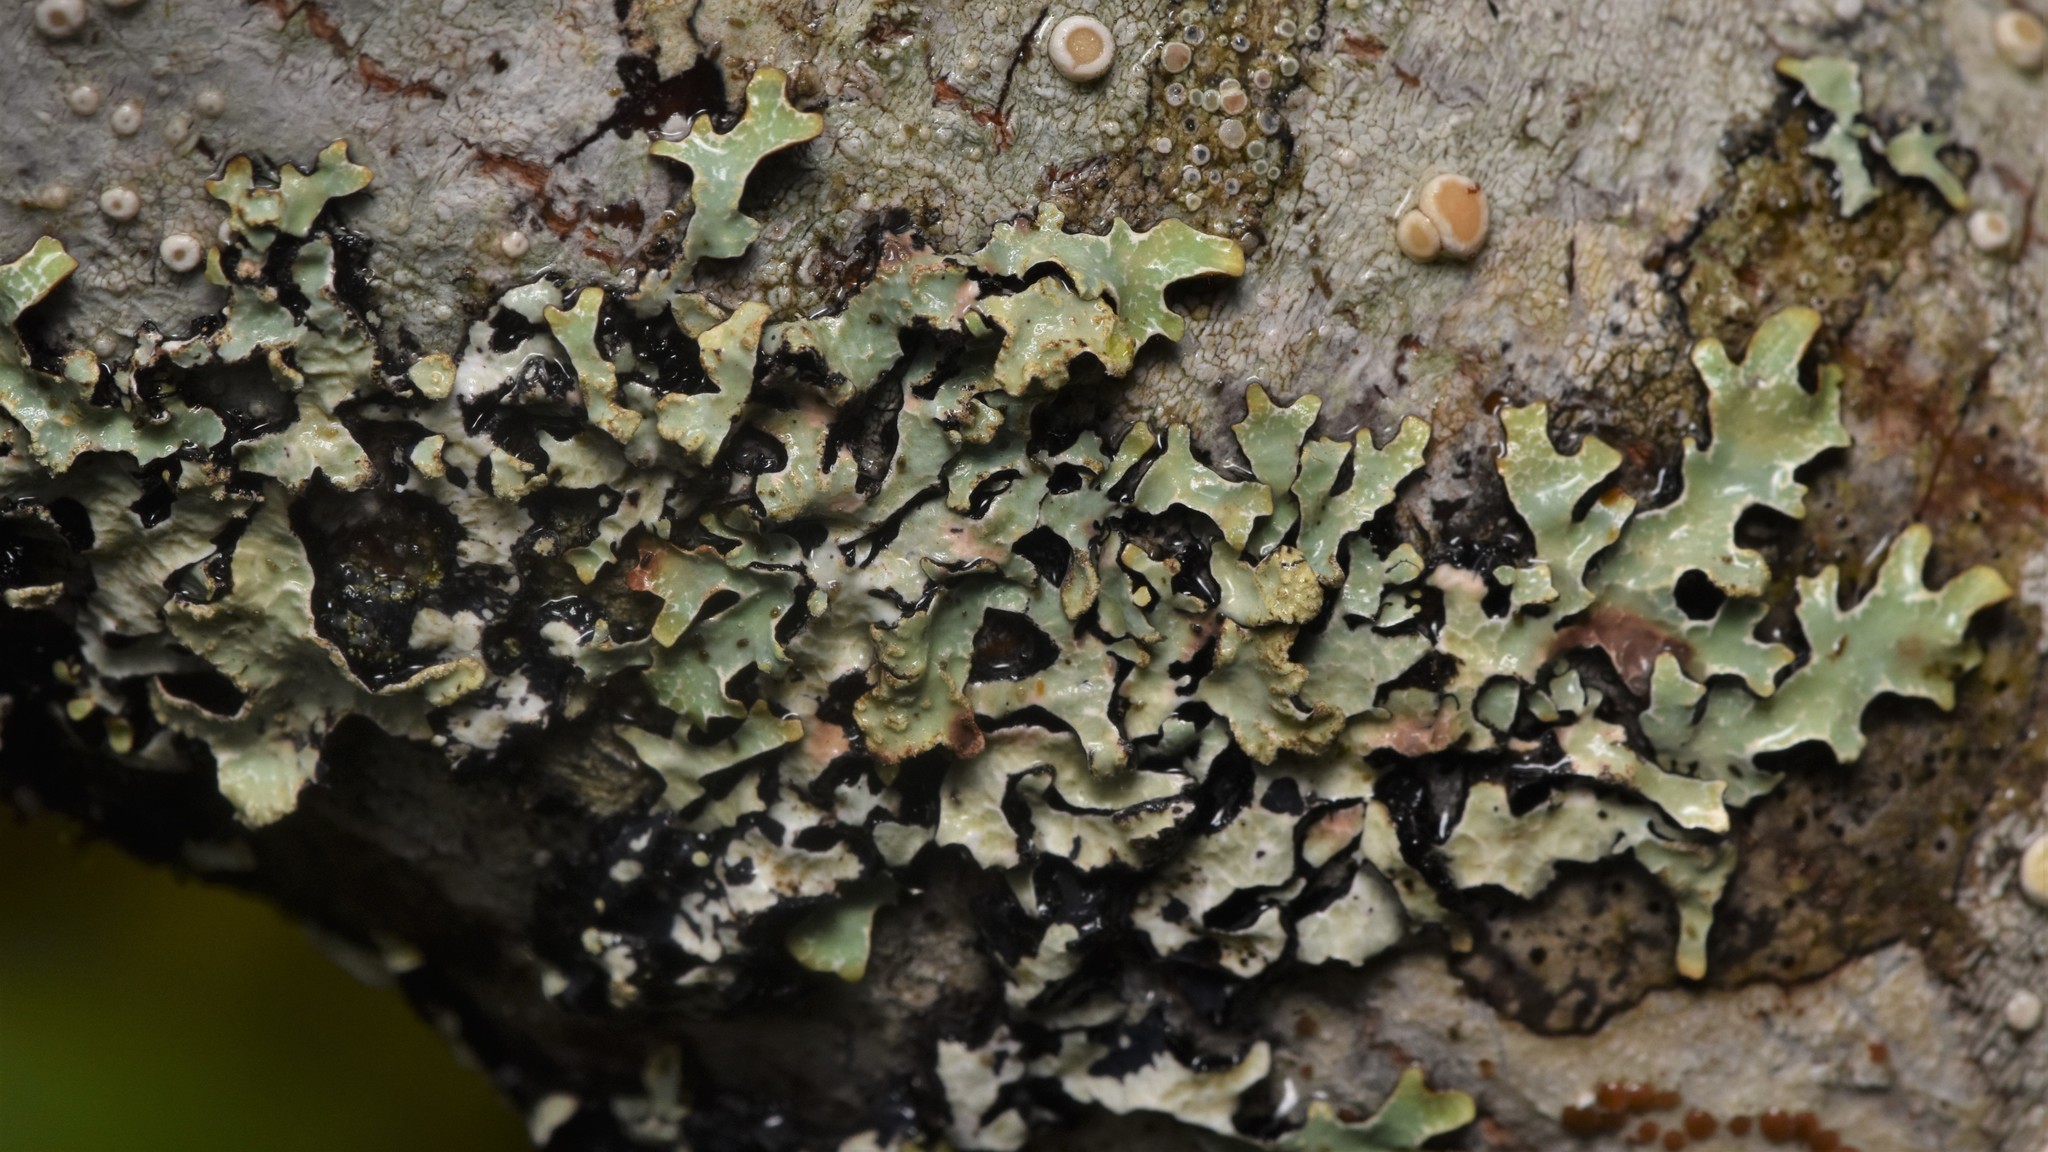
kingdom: Fungi
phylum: Ascomycota
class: Lecanoromycetes
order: Lecanorales
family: Parmeliaceae
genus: Parmelia
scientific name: Parmelia sulcata
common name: Netted shield lichen
